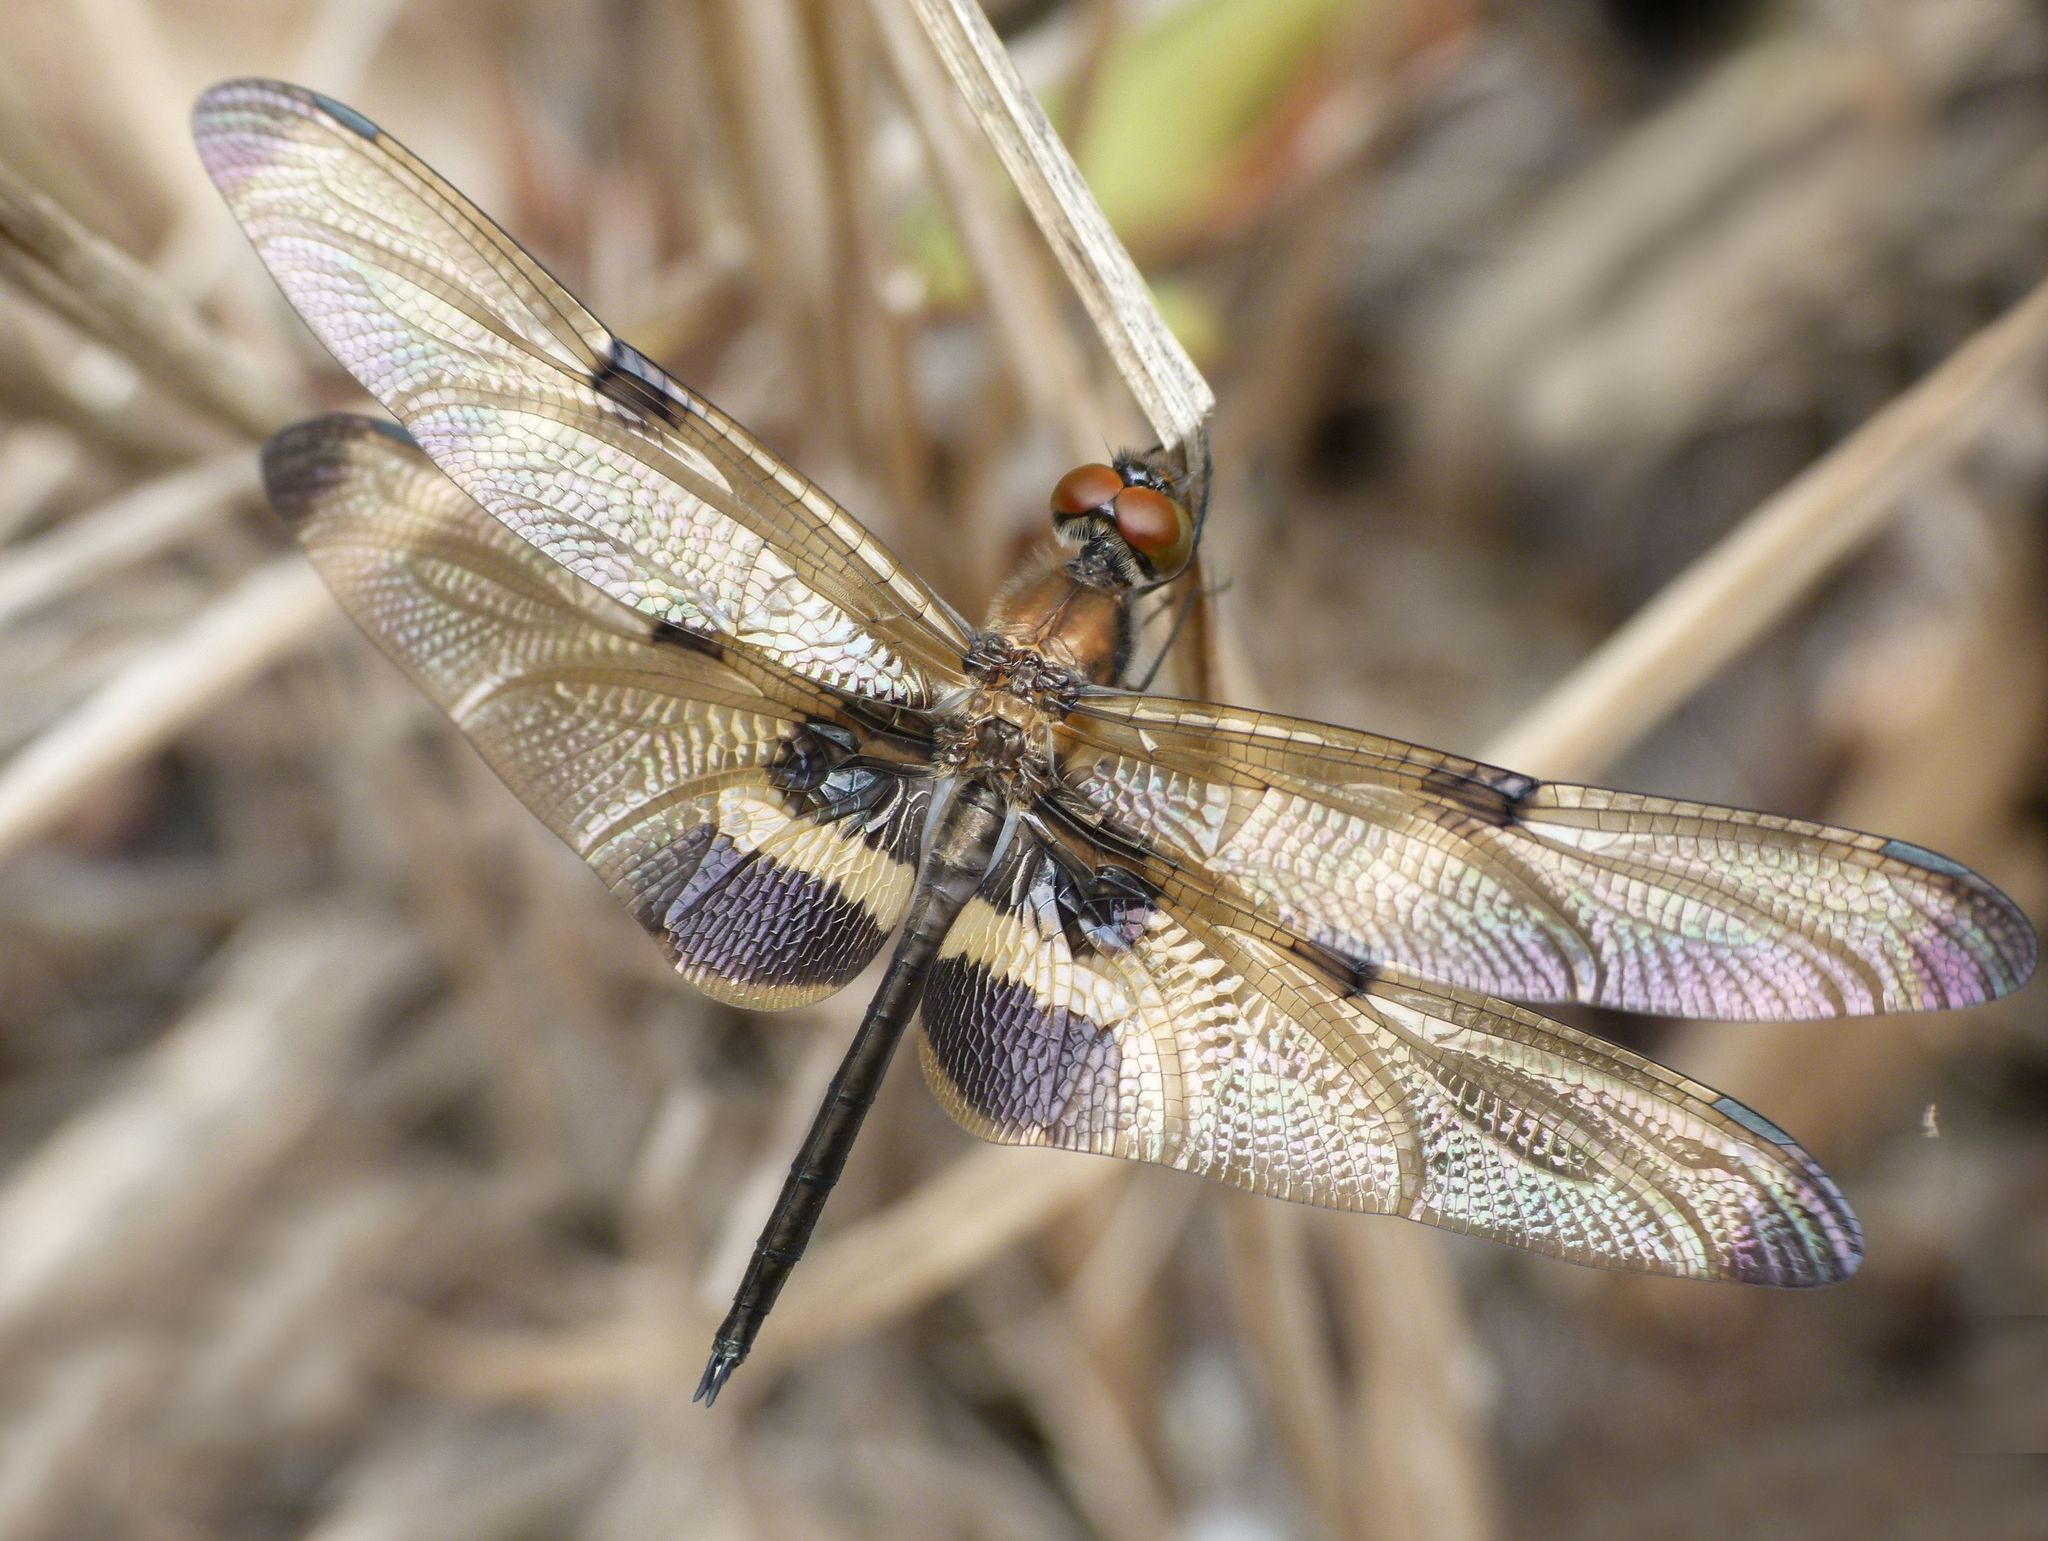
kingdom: Animalia
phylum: Arthropoda
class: Insecta
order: Odonata
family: Libellulidae
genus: Rhyothemis
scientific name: Rhyothemis phyllis
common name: Yellow-barred flutterer
